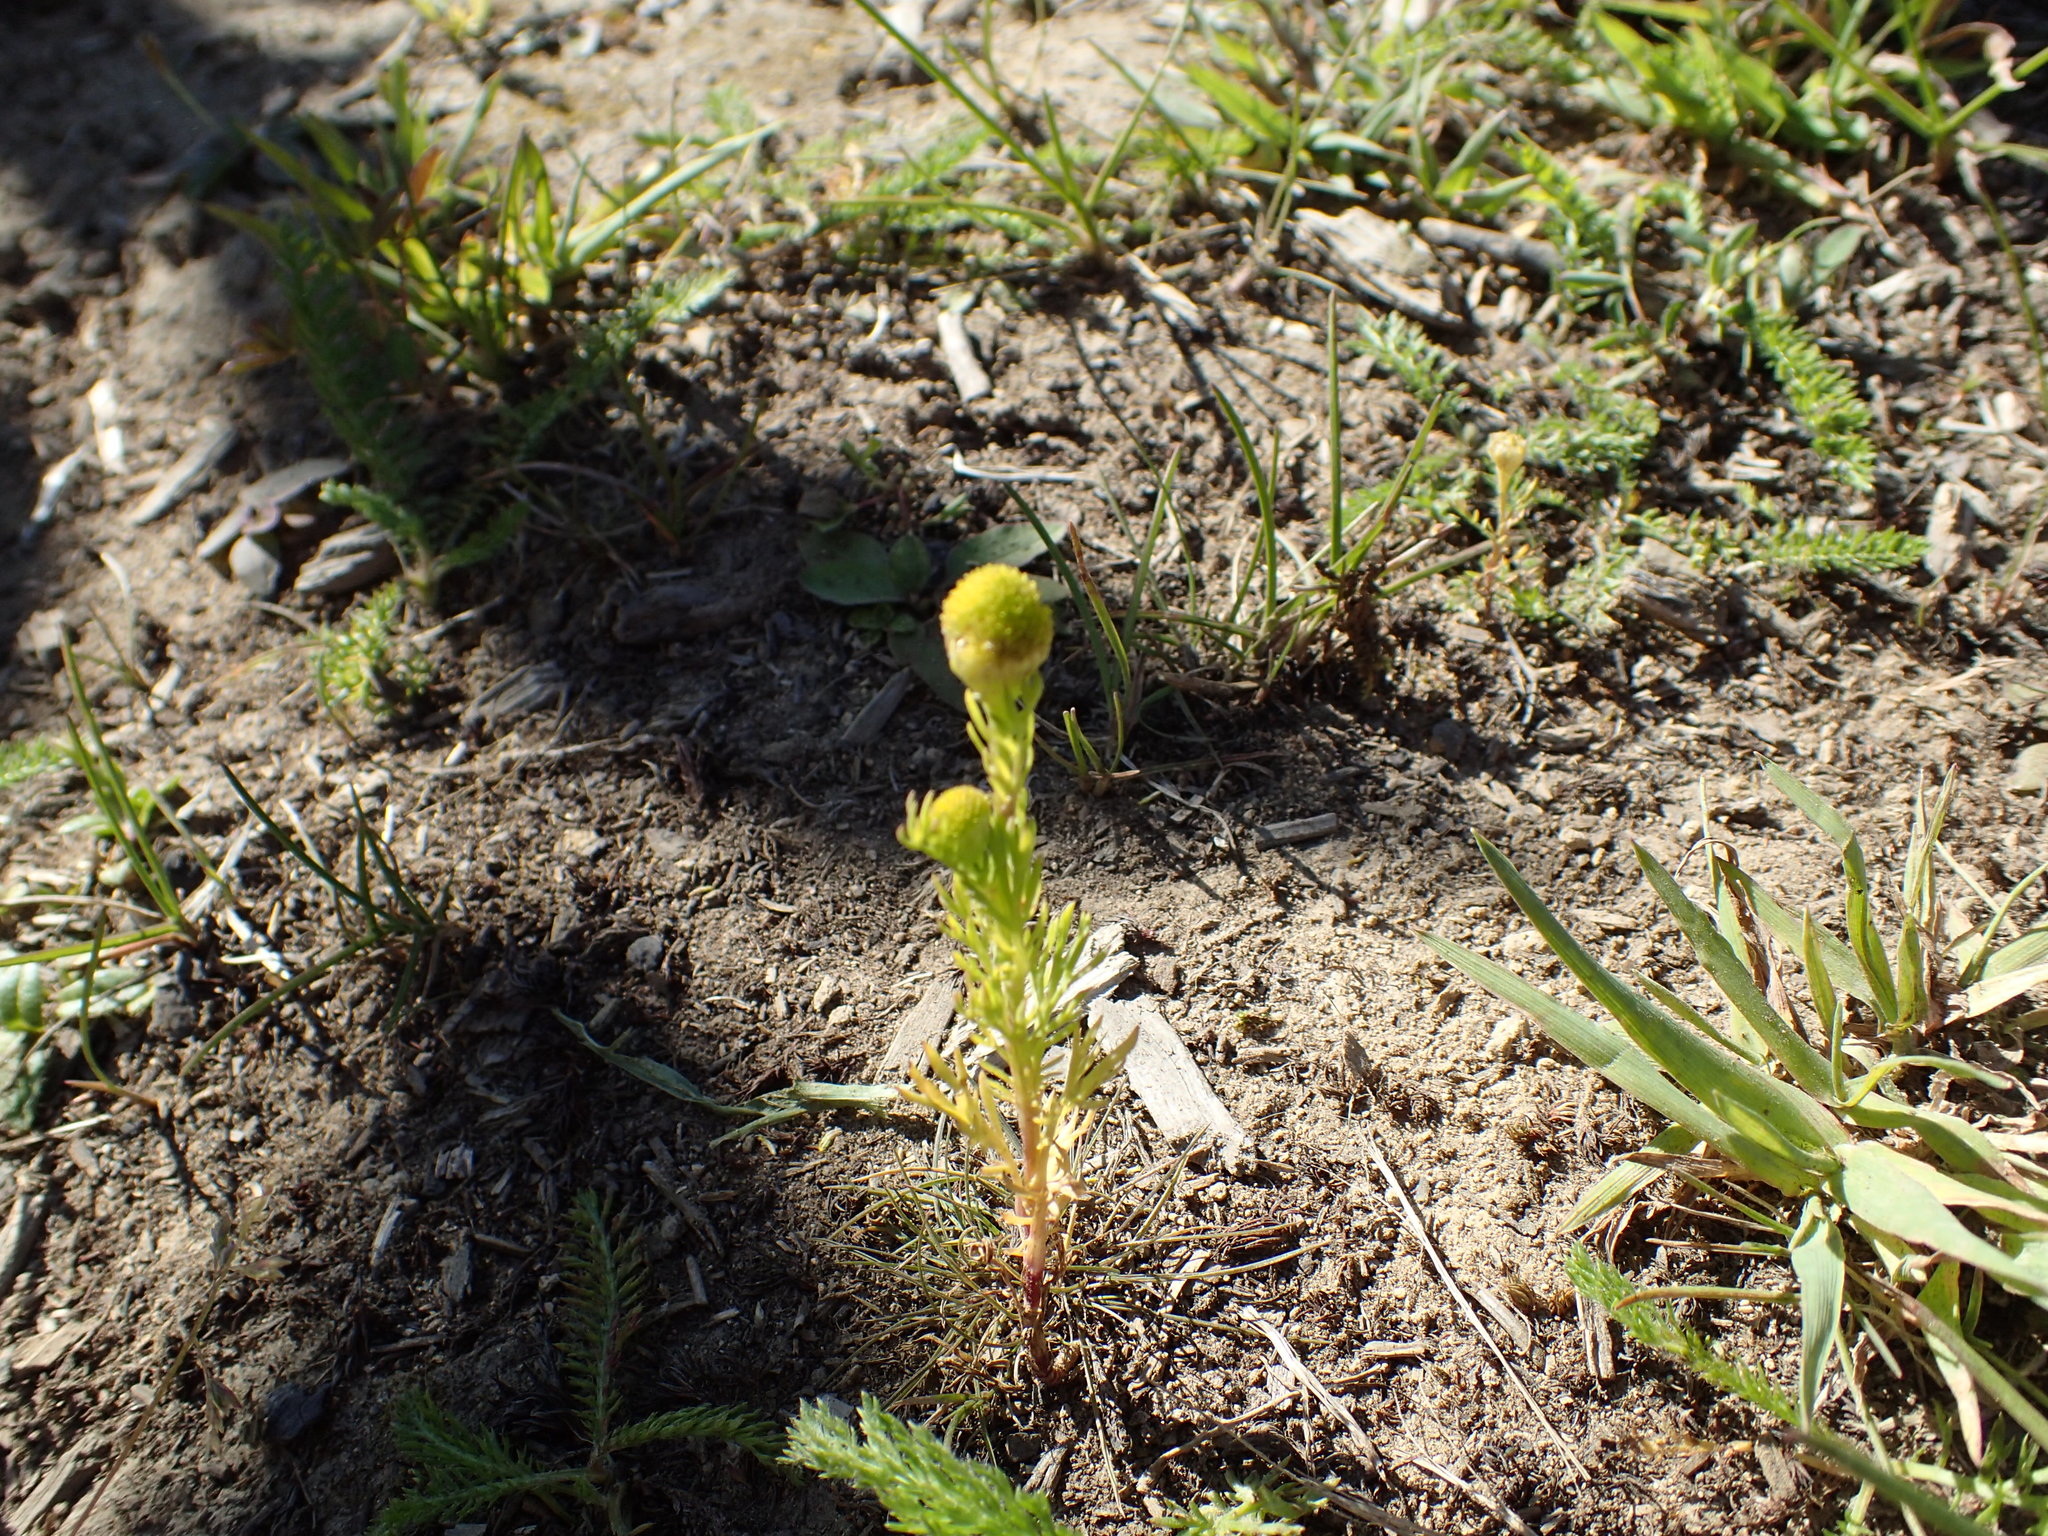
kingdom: Plantae
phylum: Tracheophyta
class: Magnoliopsida
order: Asterales
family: Asteraceae
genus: Matricaria
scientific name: Matricaria discoidea
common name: Disc mayweed
